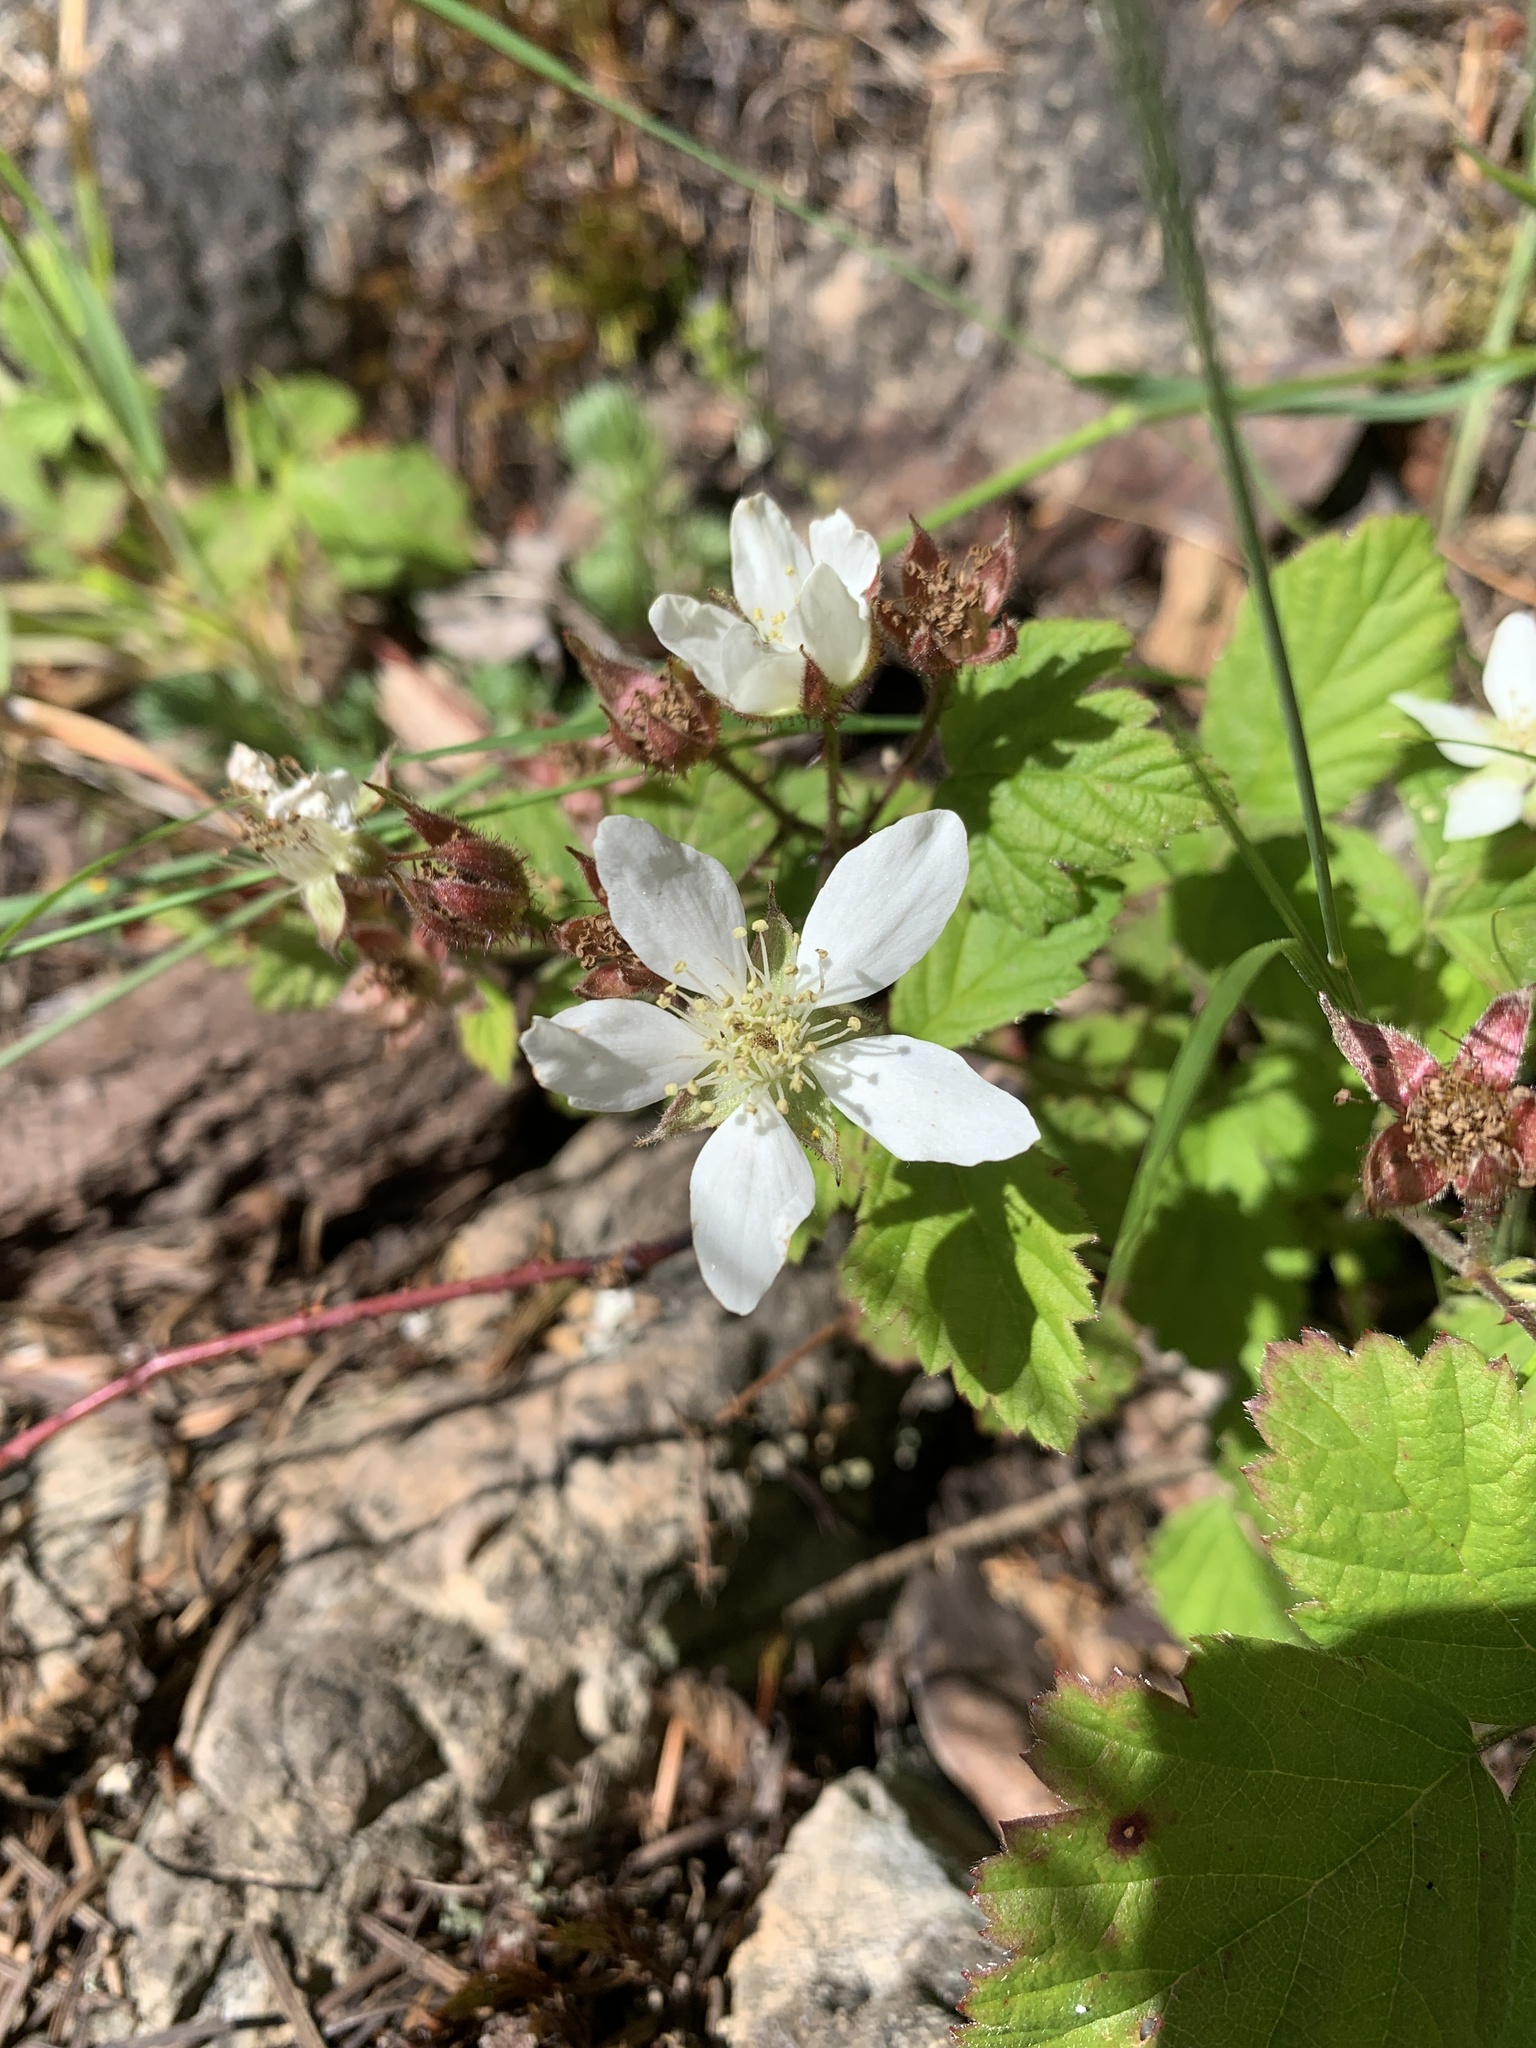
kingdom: Plantae
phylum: Tracheophyta
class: Magnoliopsida
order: Rosales
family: Rosaceae
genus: Rubus
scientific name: Rubus ursinus
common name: Pacific blackberry
